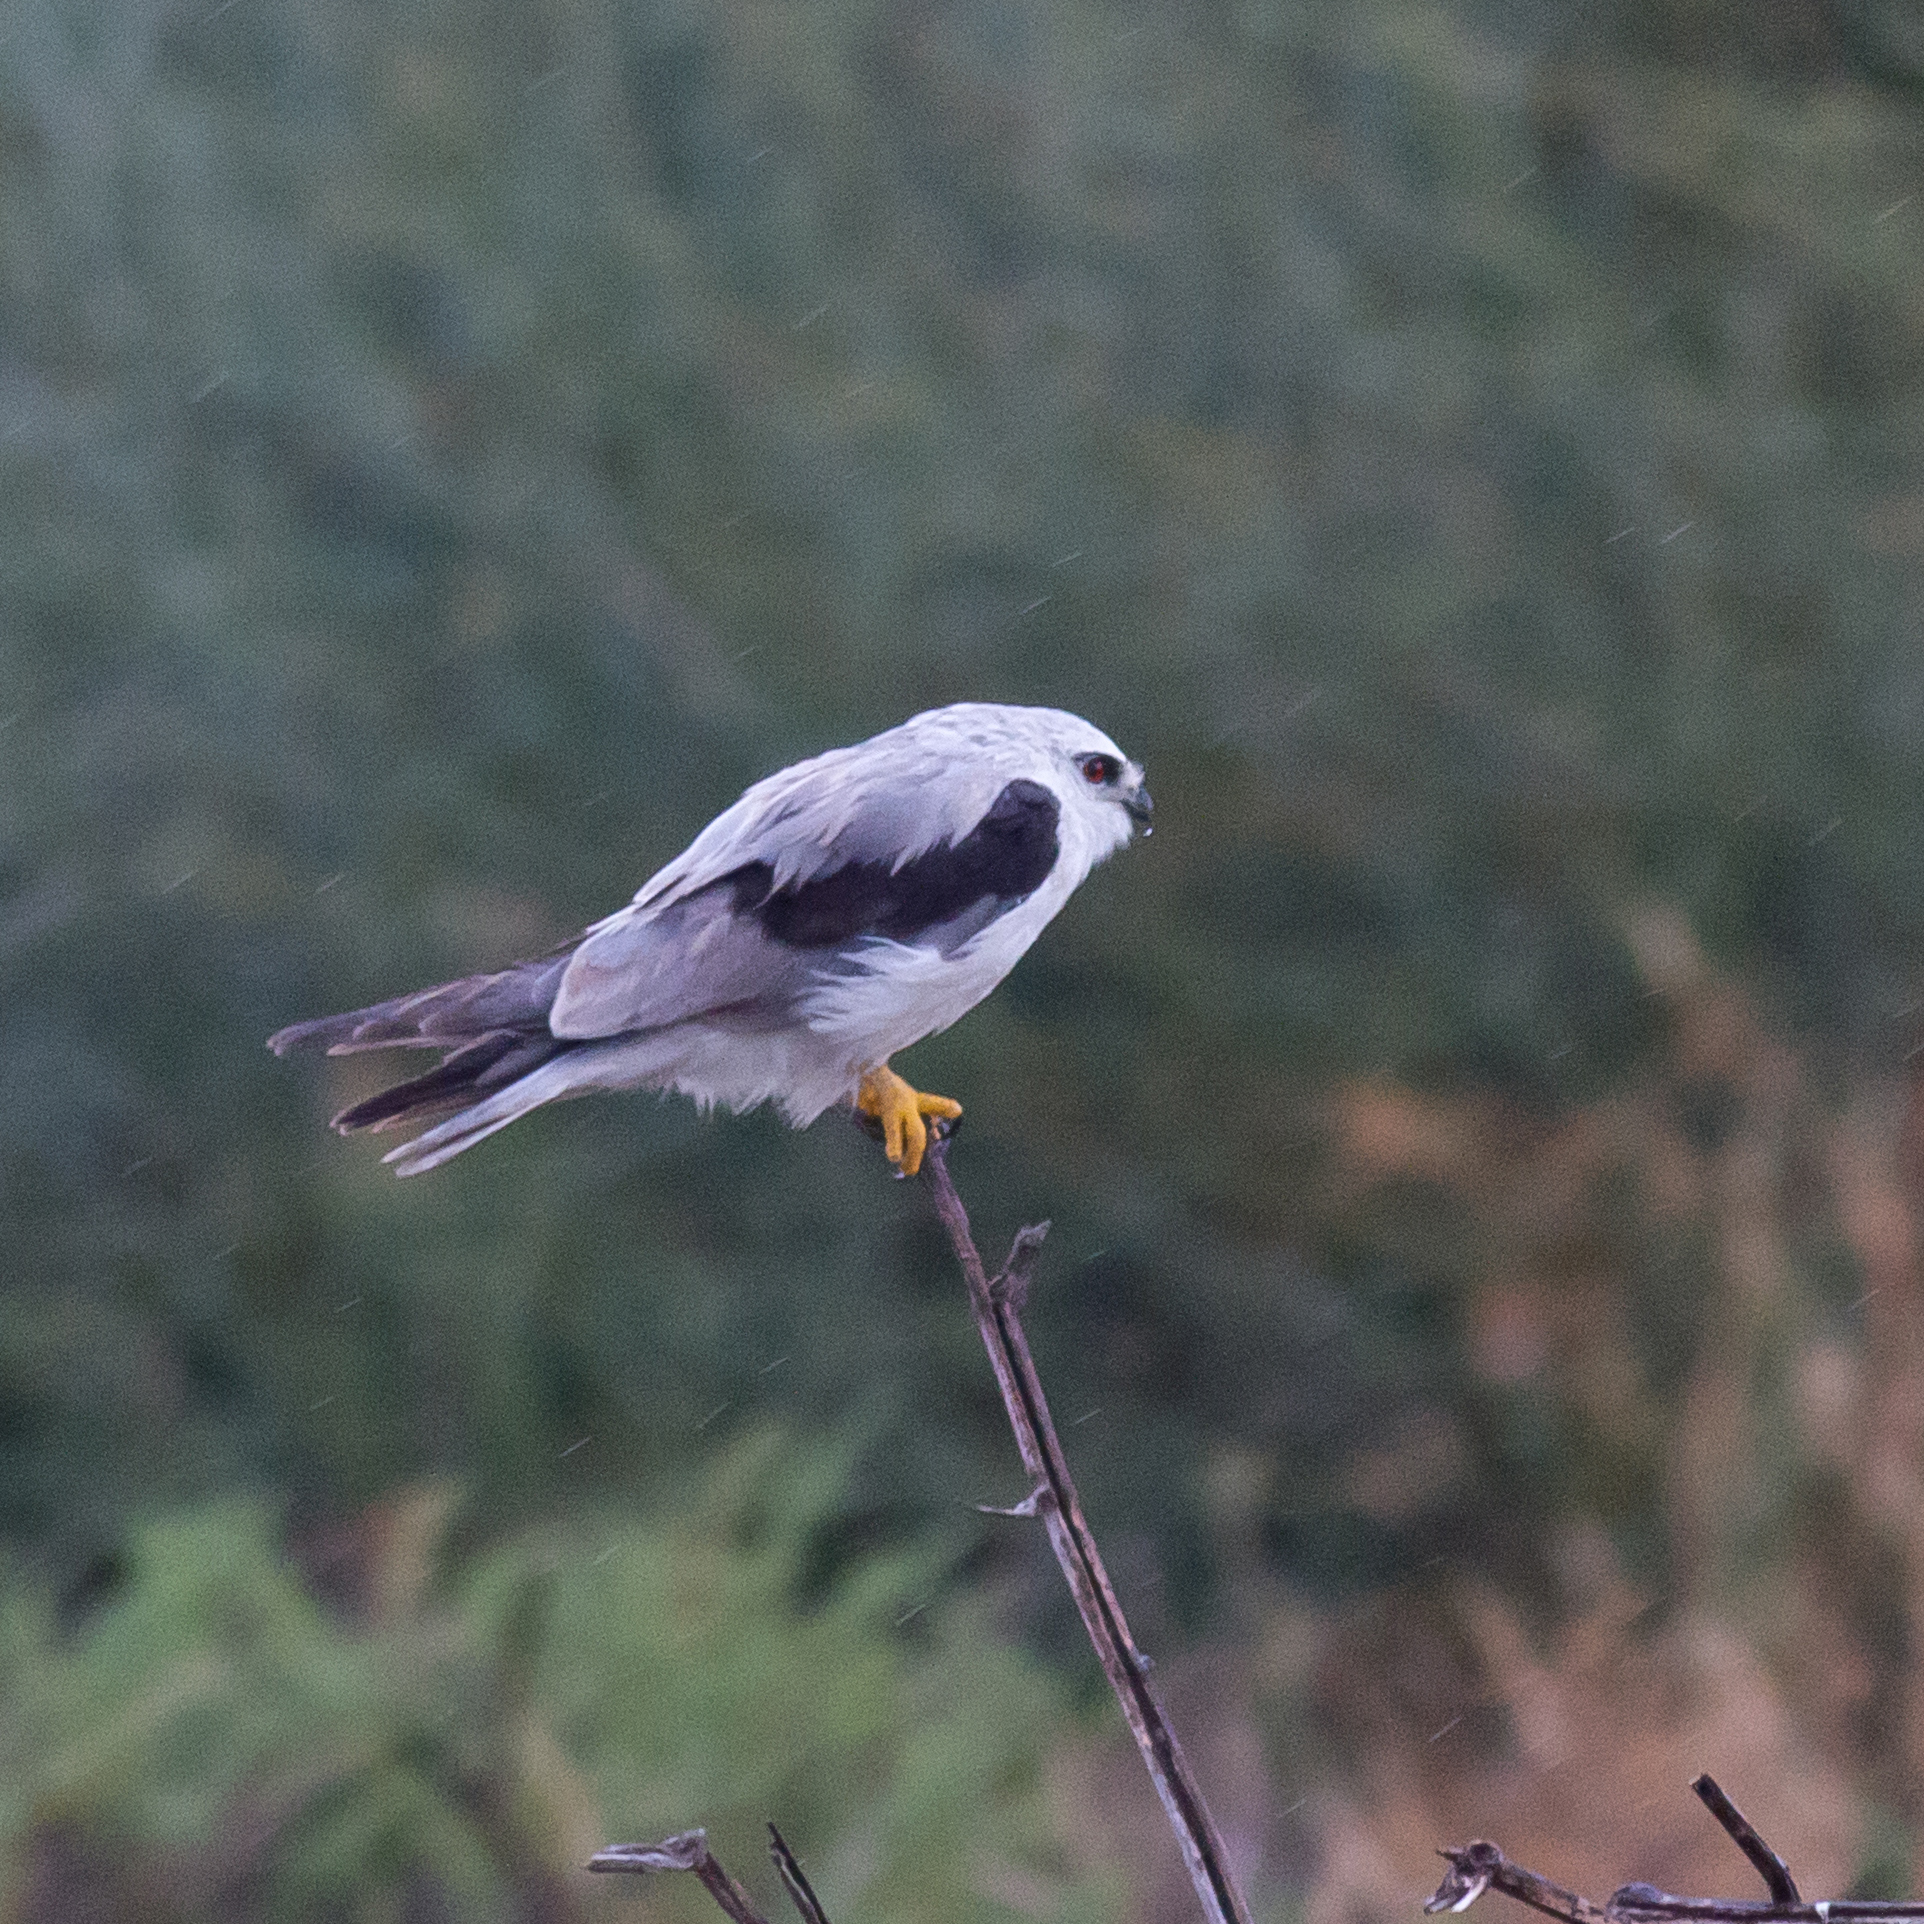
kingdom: Animalia
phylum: Chordata
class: Aves
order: Accipitriformes
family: Accipitridae
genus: Elanus
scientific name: Elanus axillaris
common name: Black-shouldered kite
